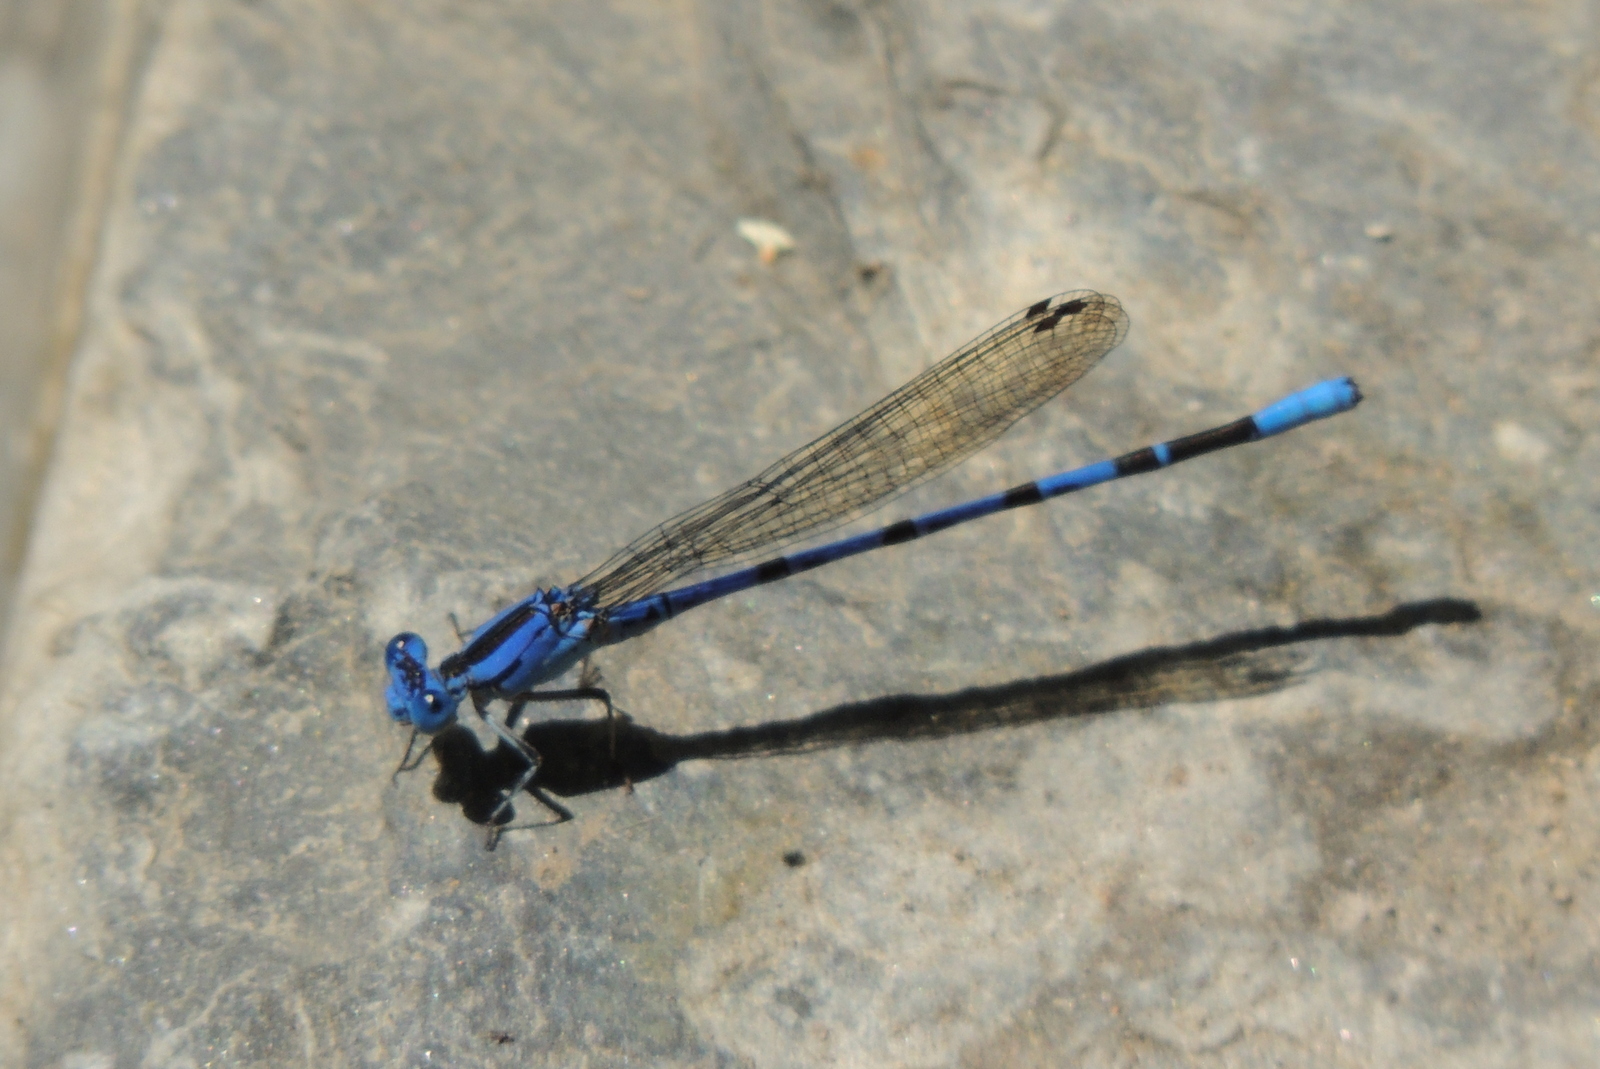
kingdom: Animalia
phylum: Arthropoda
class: Insecta
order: Odonata
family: Coenagrionidae
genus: Argia
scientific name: Argia vivida
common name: Vivid dancer
